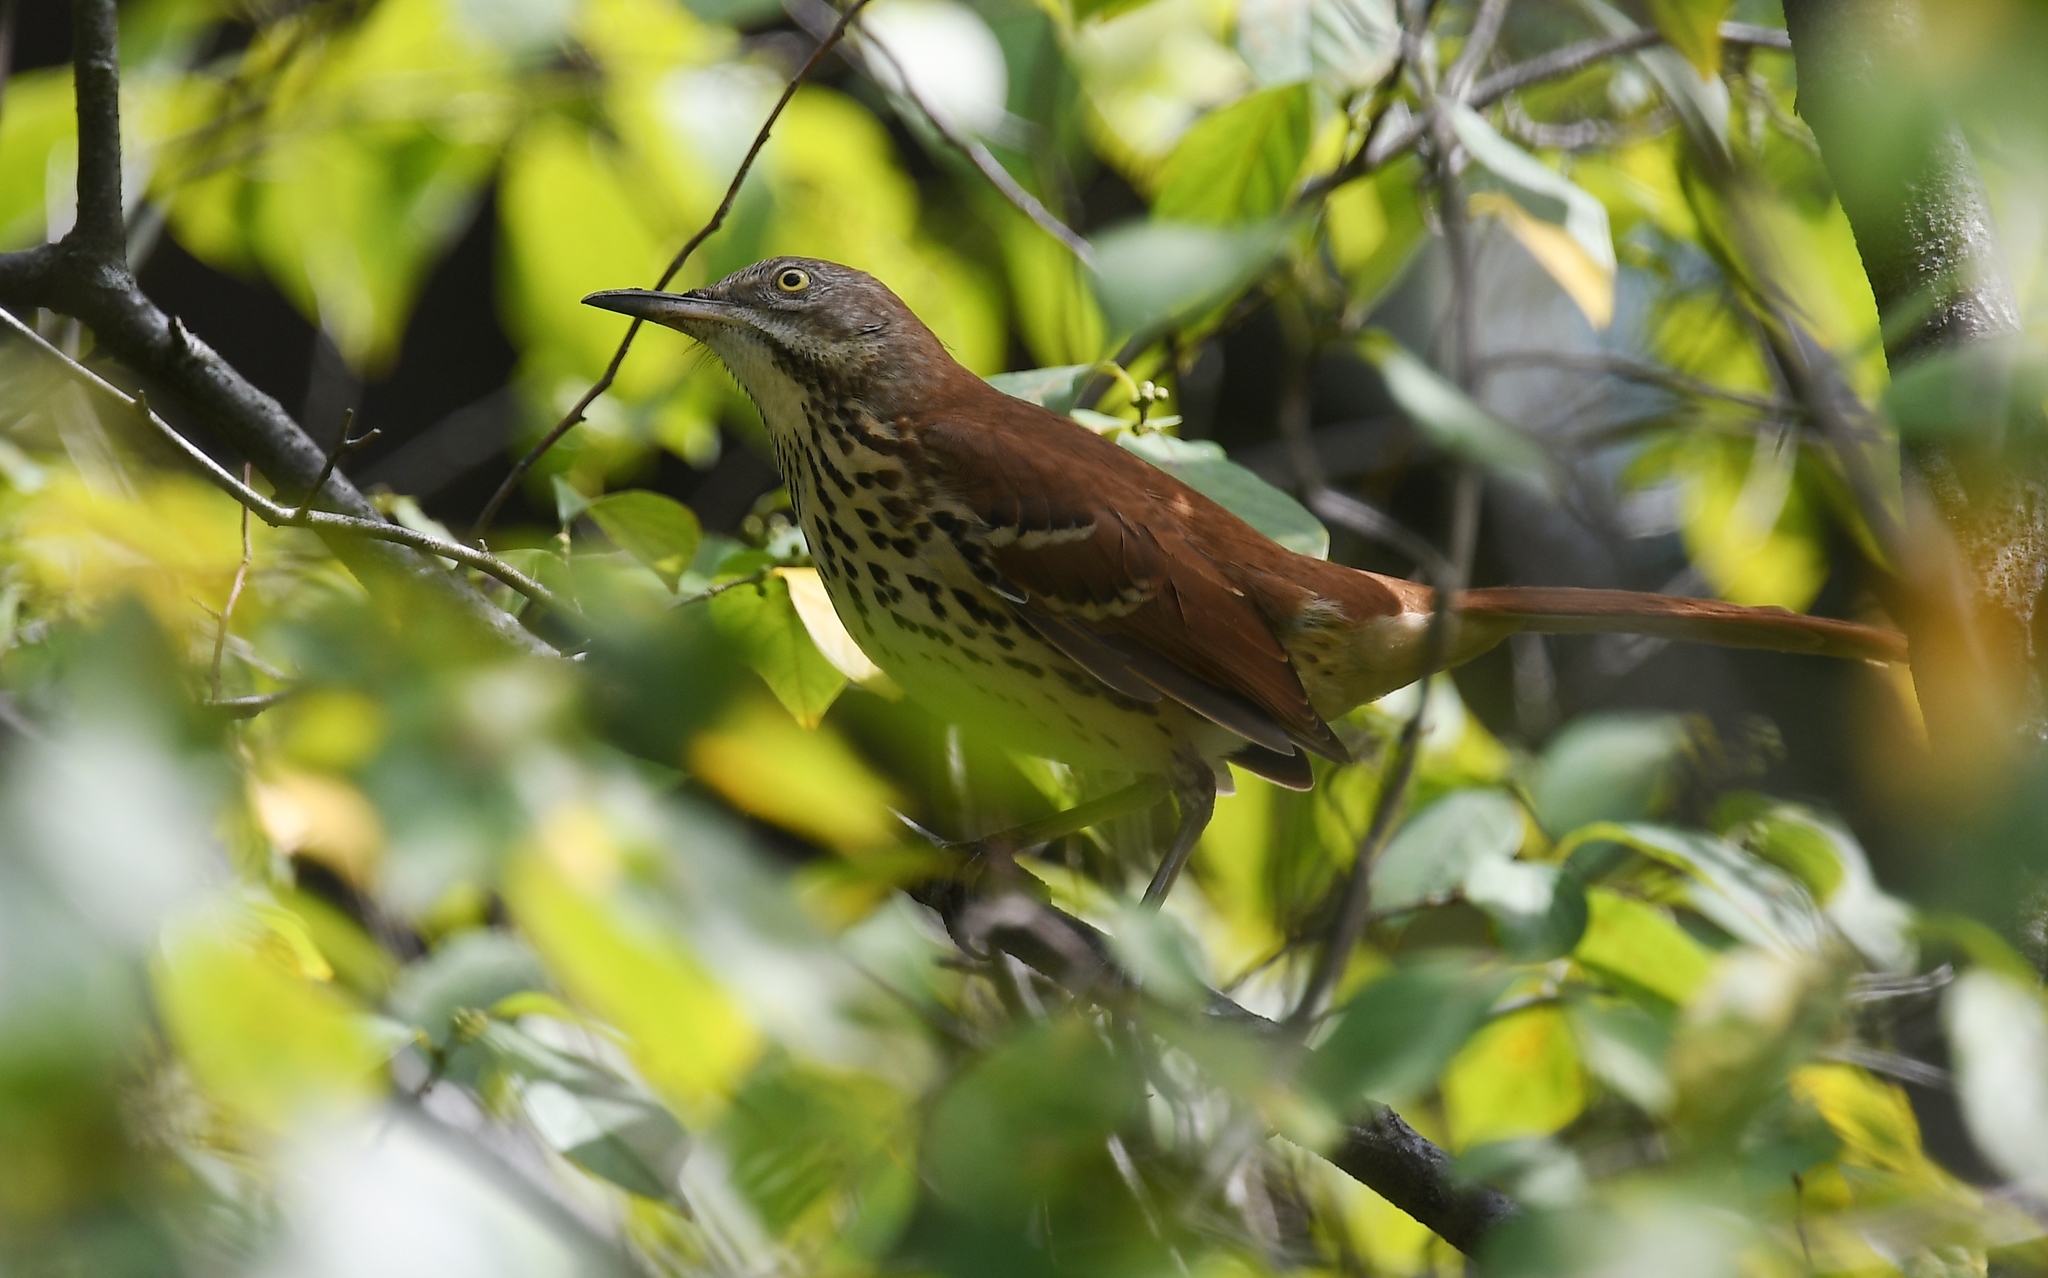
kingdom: Animalia
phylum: Chordata
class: Aves
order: Passeriformes
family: Mimidae
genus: Toxostoma
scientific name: Toxostoma rufum
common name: Brown thrasher
